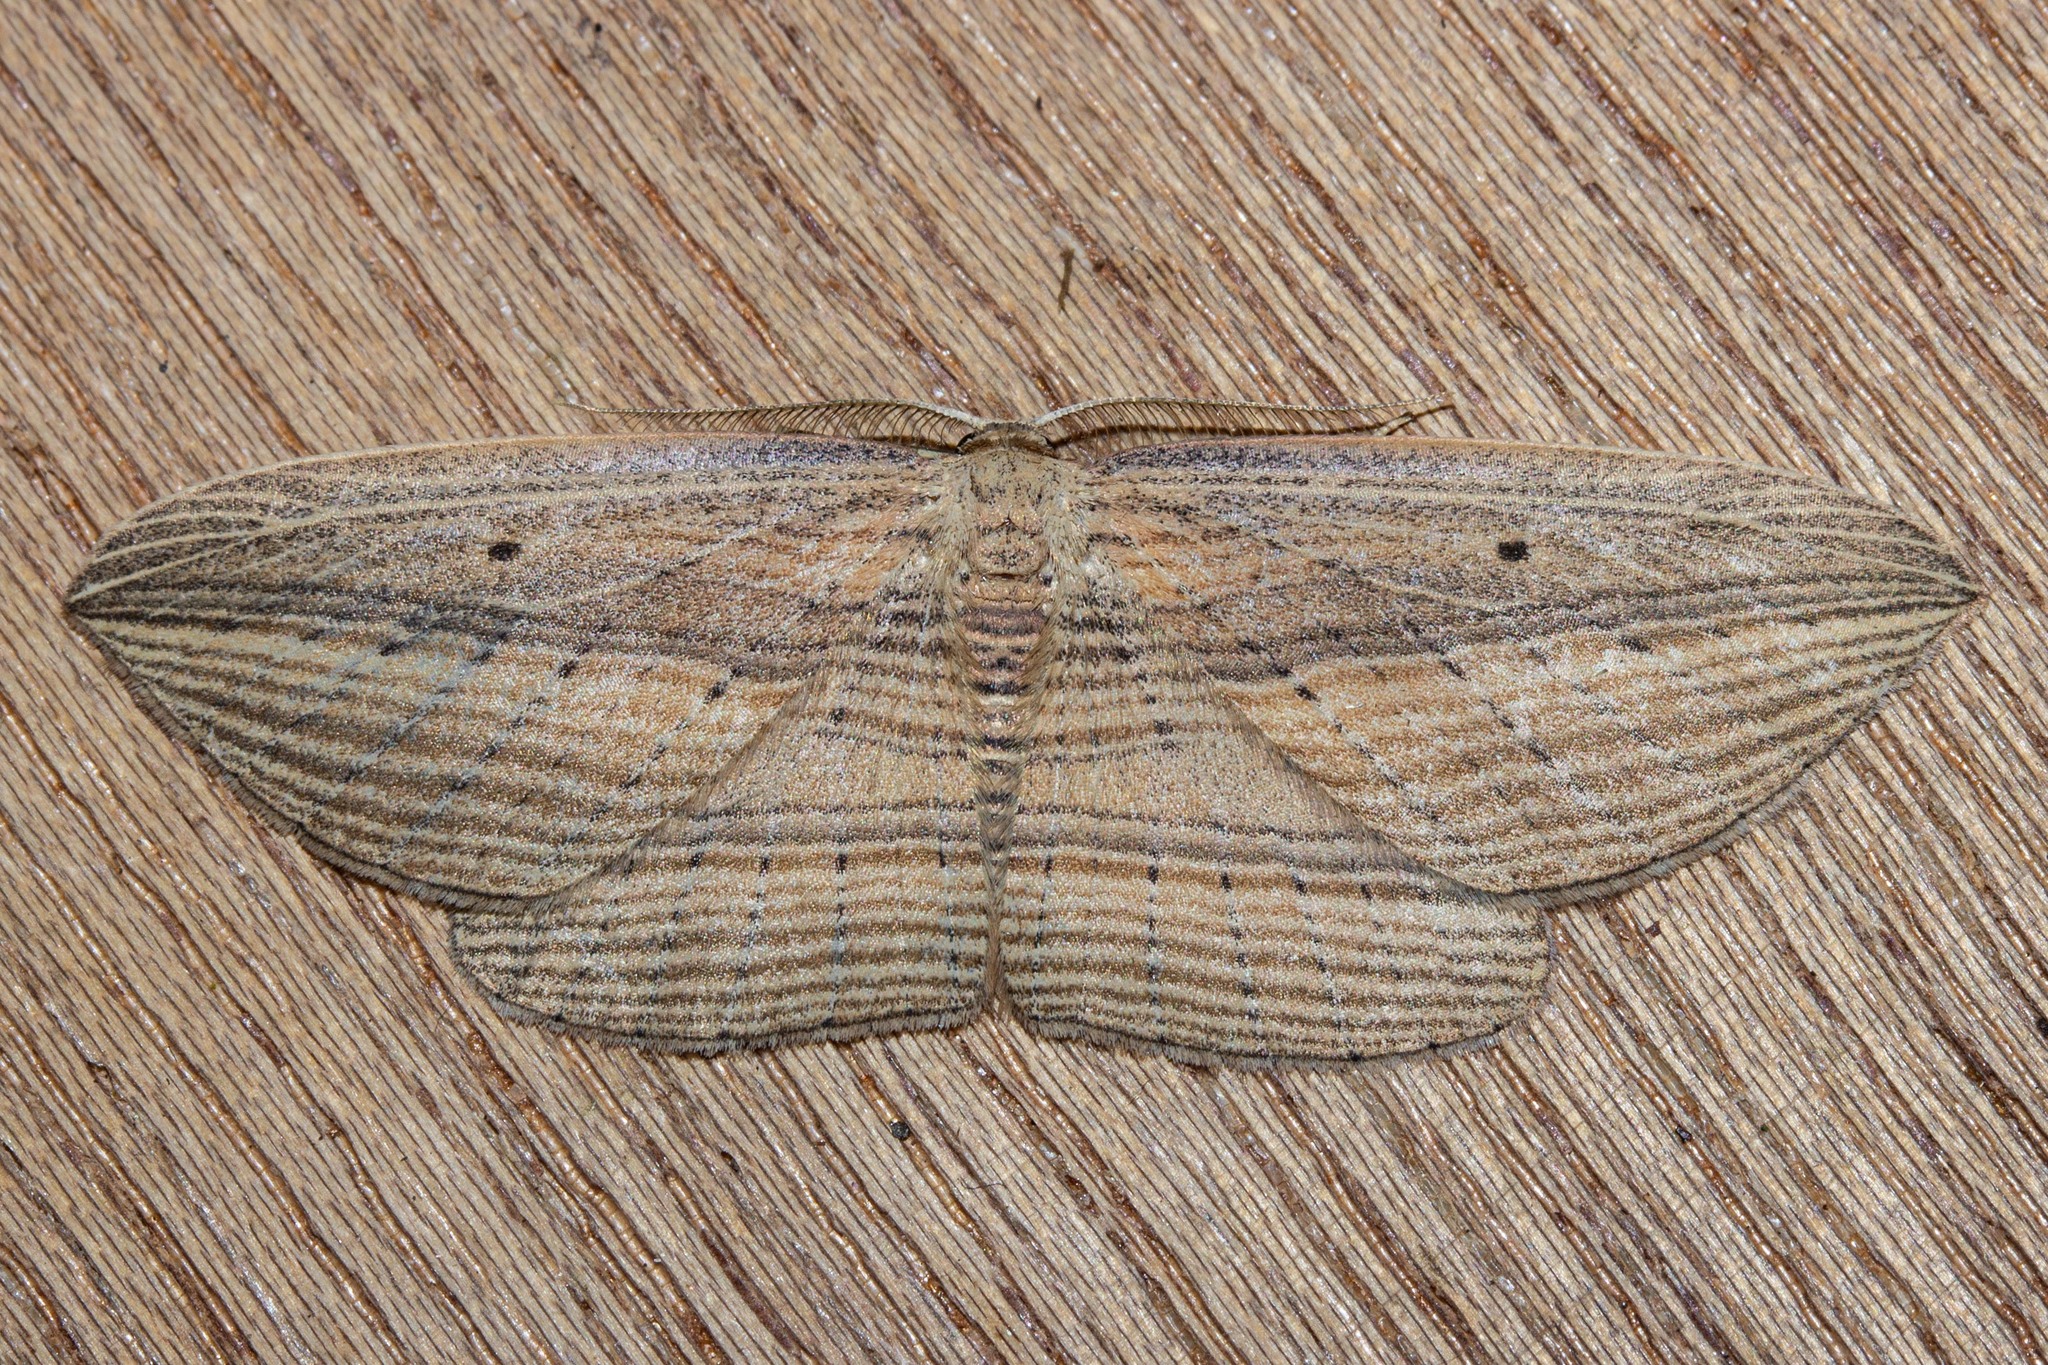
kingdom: Animalia
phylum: Arthropoda
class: Insecta
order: Lepidoptera
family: Geometridae
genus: Epiphryne
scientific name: Epiphryne verriculata
